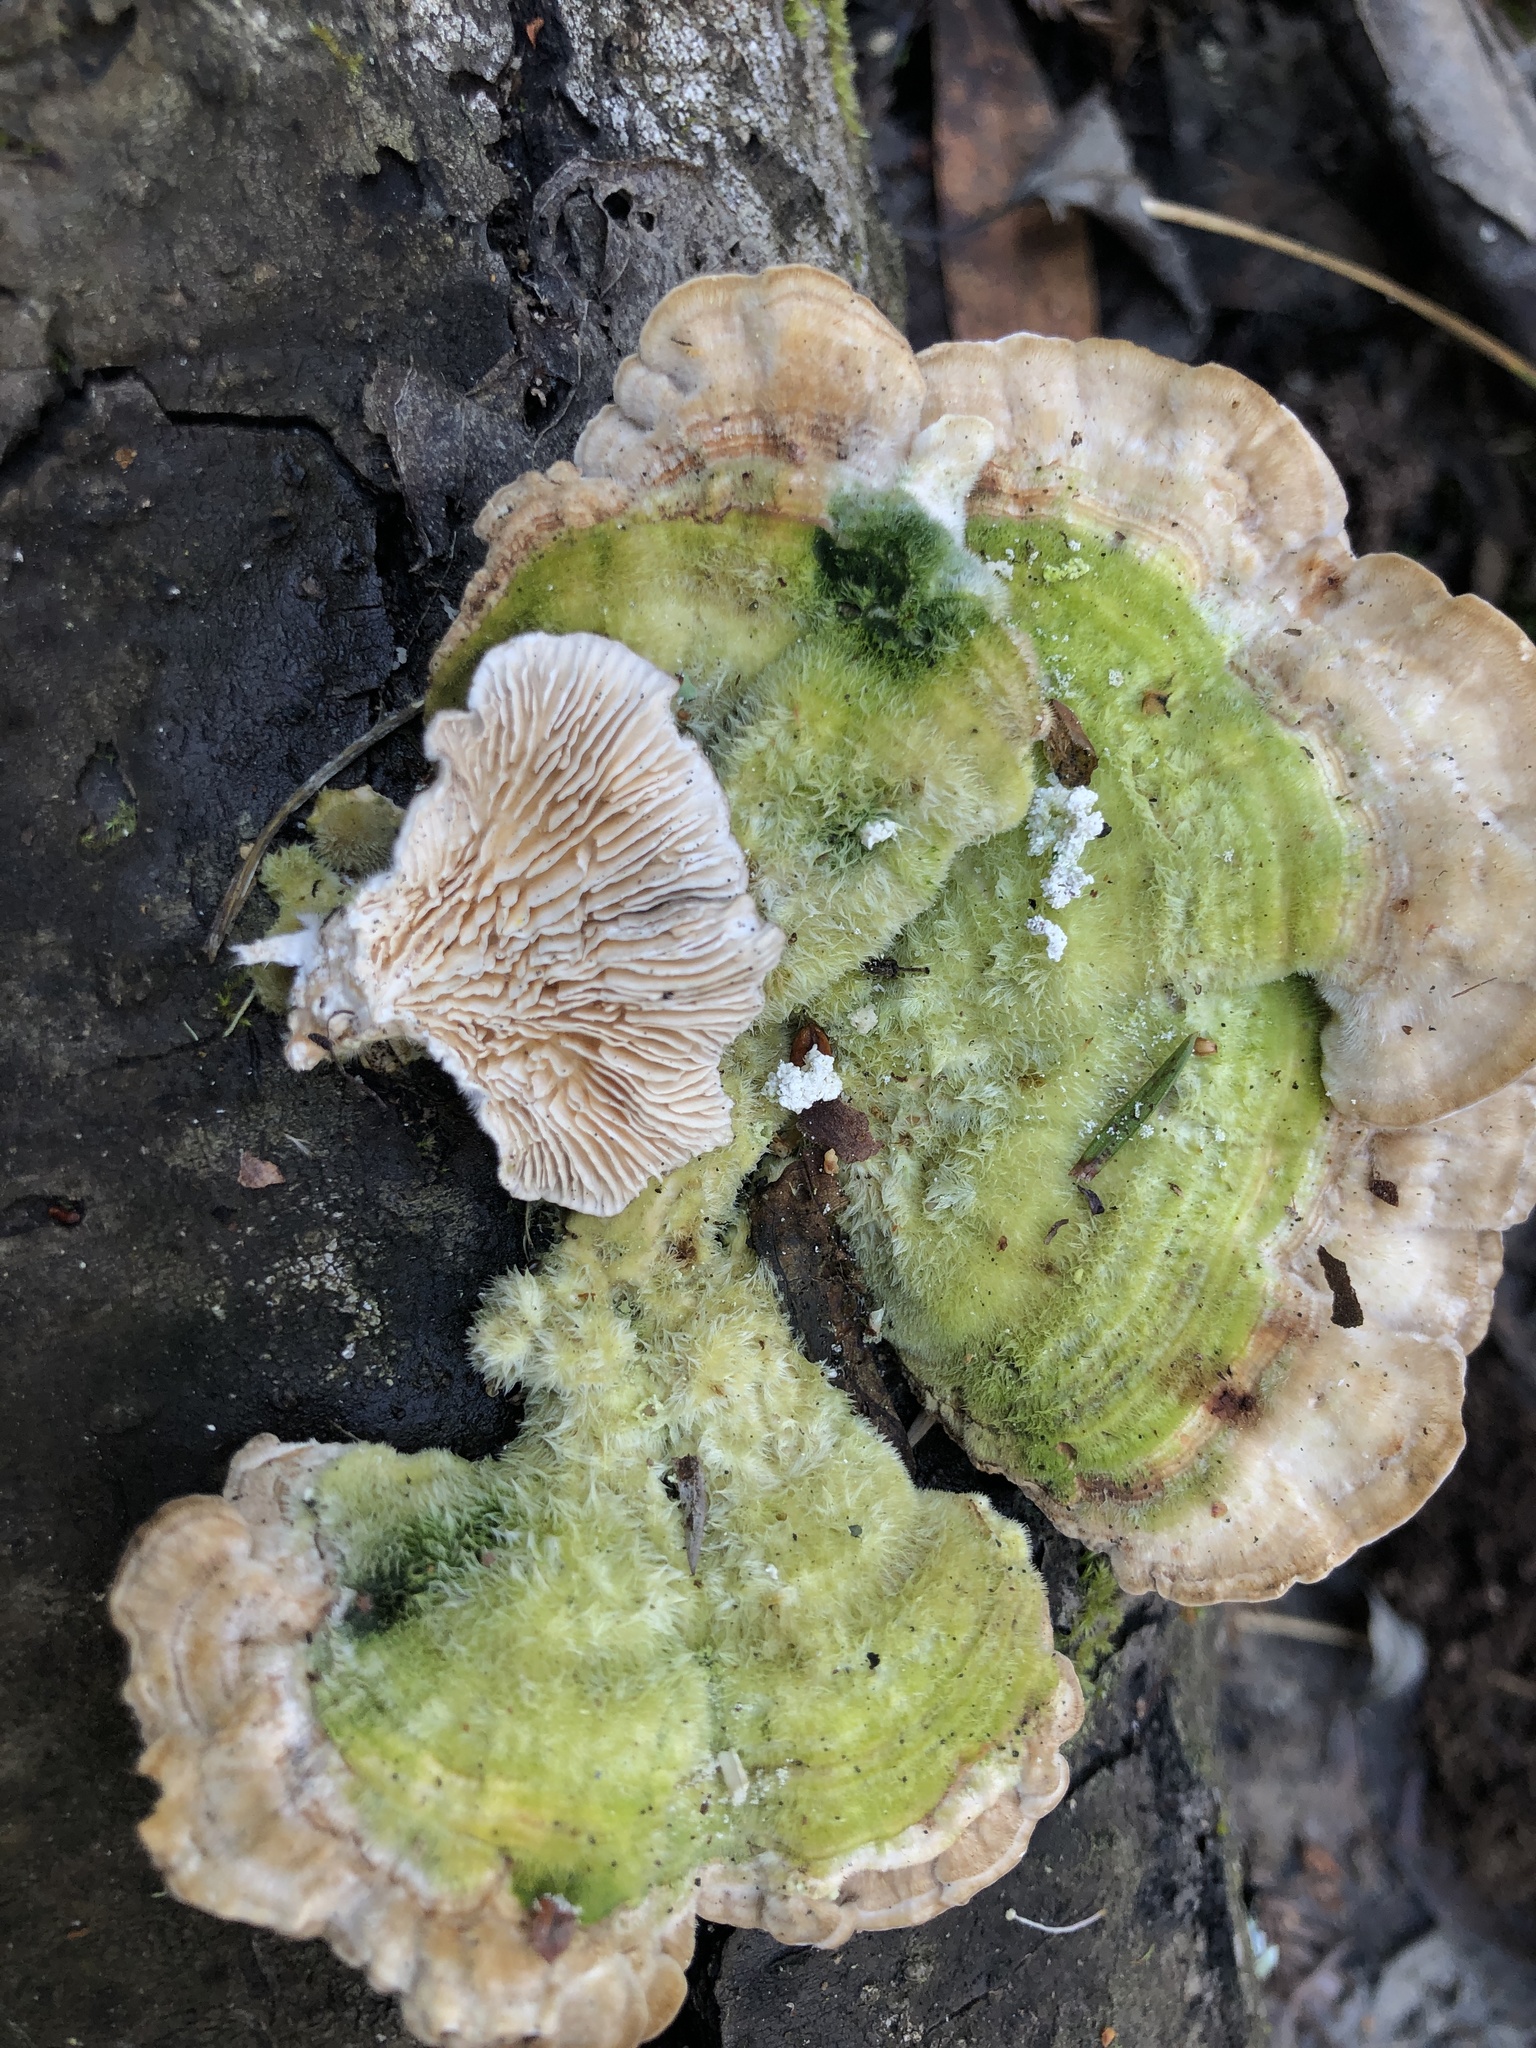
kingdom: Fungi
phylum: Basidiomycota
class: Agaricomycetes
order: Polyporales
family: Polyporaceae
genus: Lenzites
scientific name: Lenzites betulinus
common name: Birch mazegill
